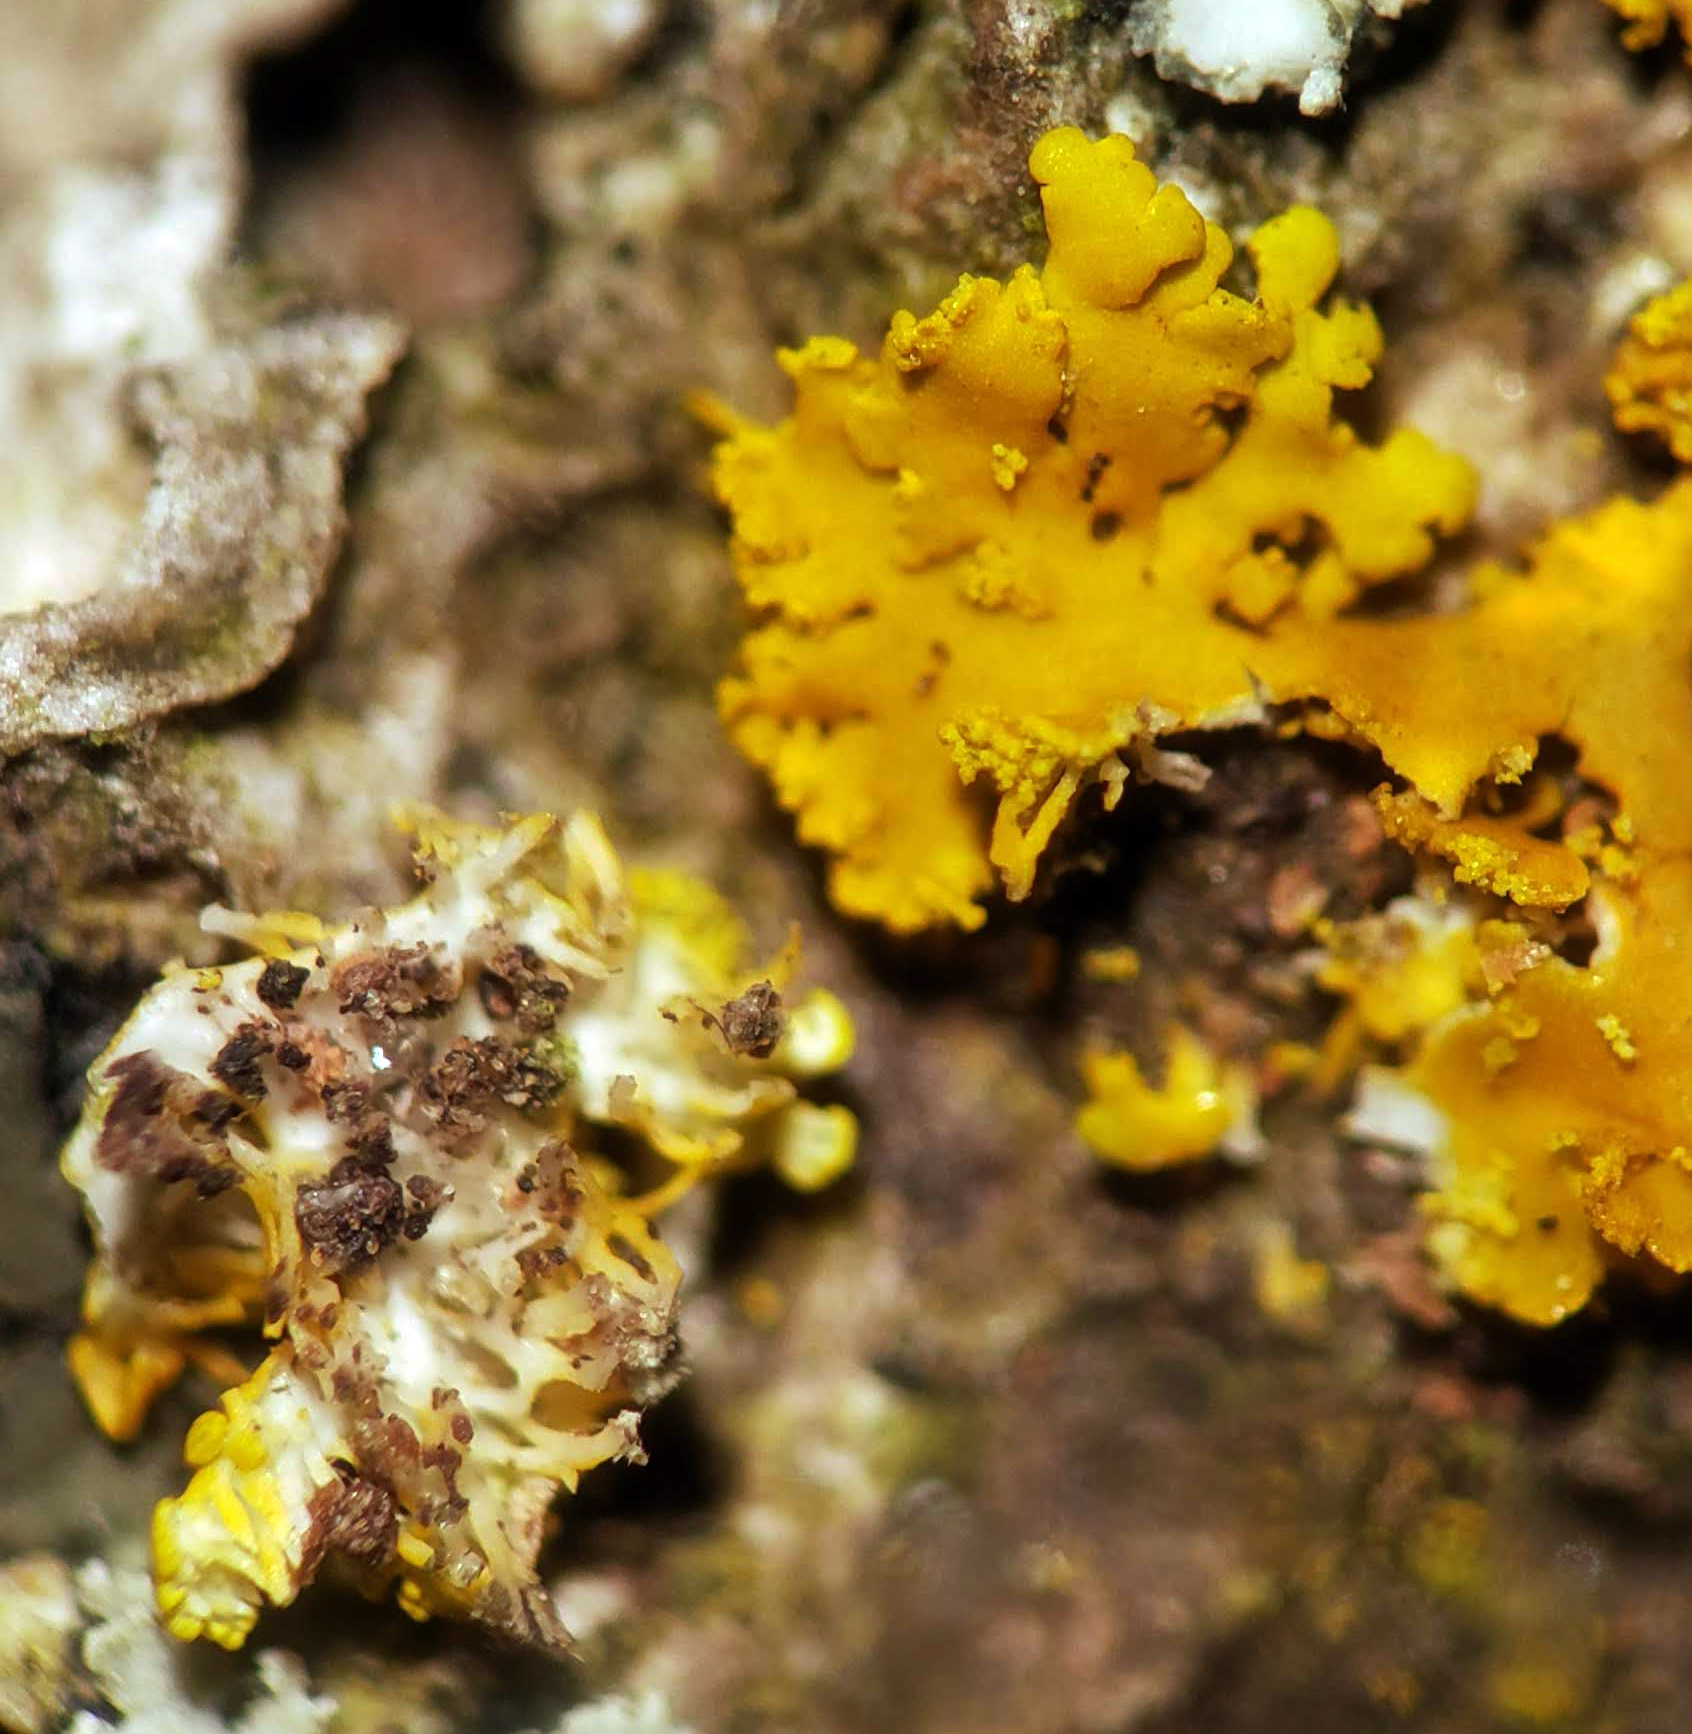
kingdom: Fungi
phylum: Ascomycota
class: Lecanoromycetes
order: Teloschistales
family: Teloschistaceae
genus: Xanthoria
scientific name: Xanthoria ulophyllodes
